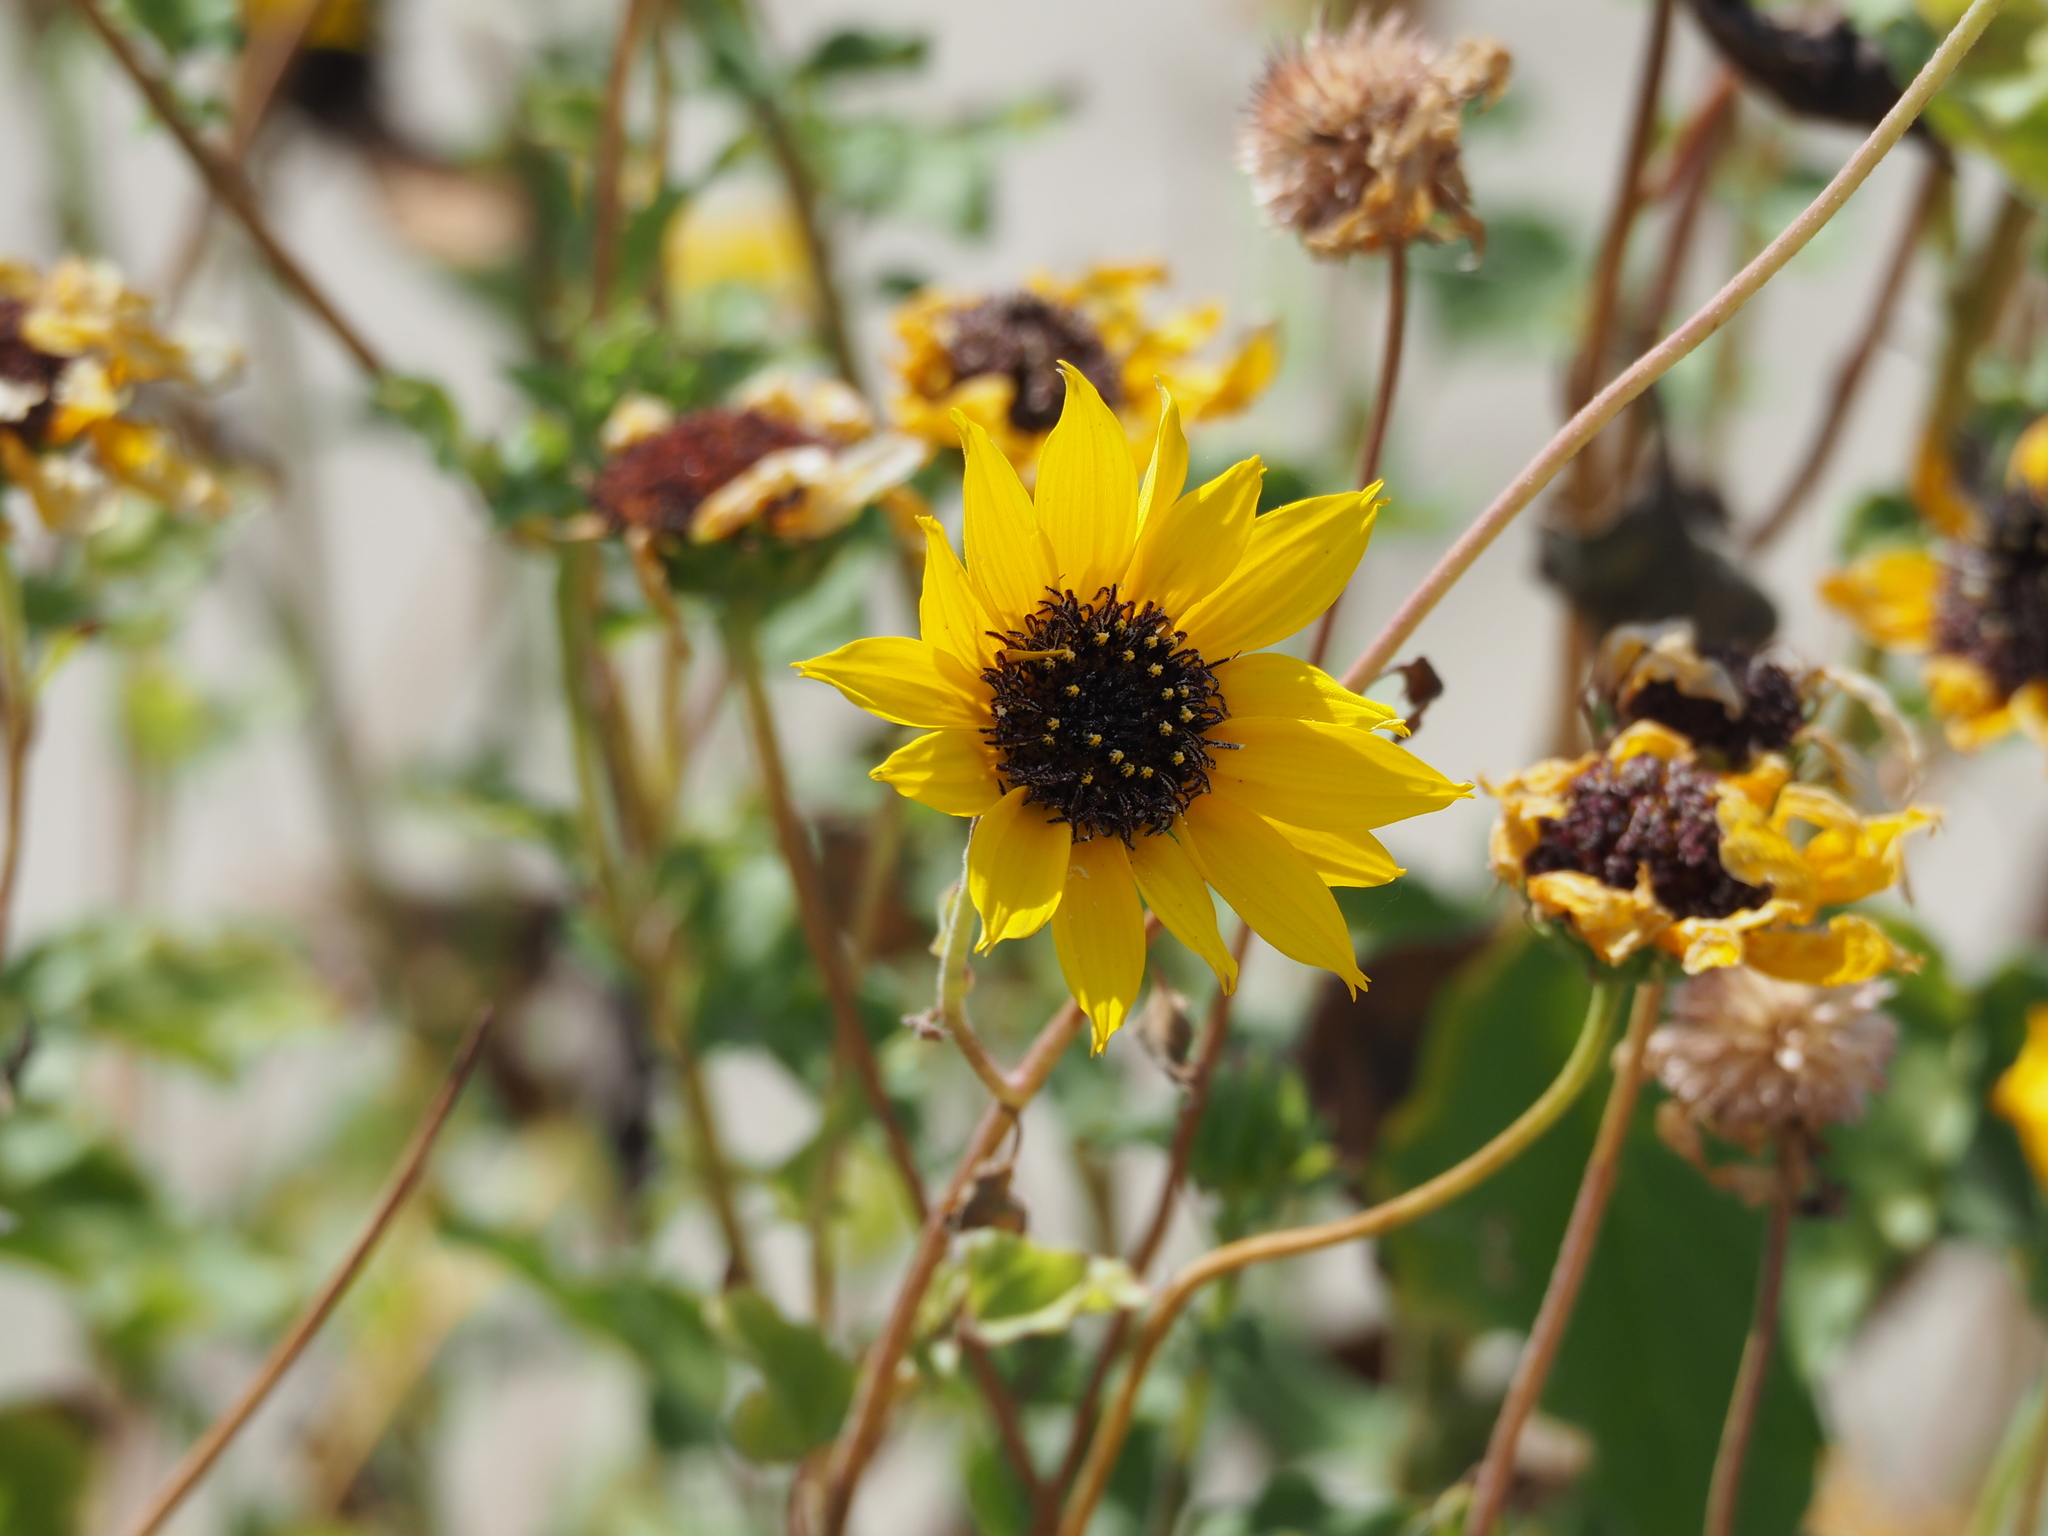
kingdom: Plantae
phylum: Tracheophyta
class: Magnoliopsida
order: Asterales
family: Asteraceae
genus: Helianthus
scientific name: Helianthus debilis
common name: Weak sunflower
